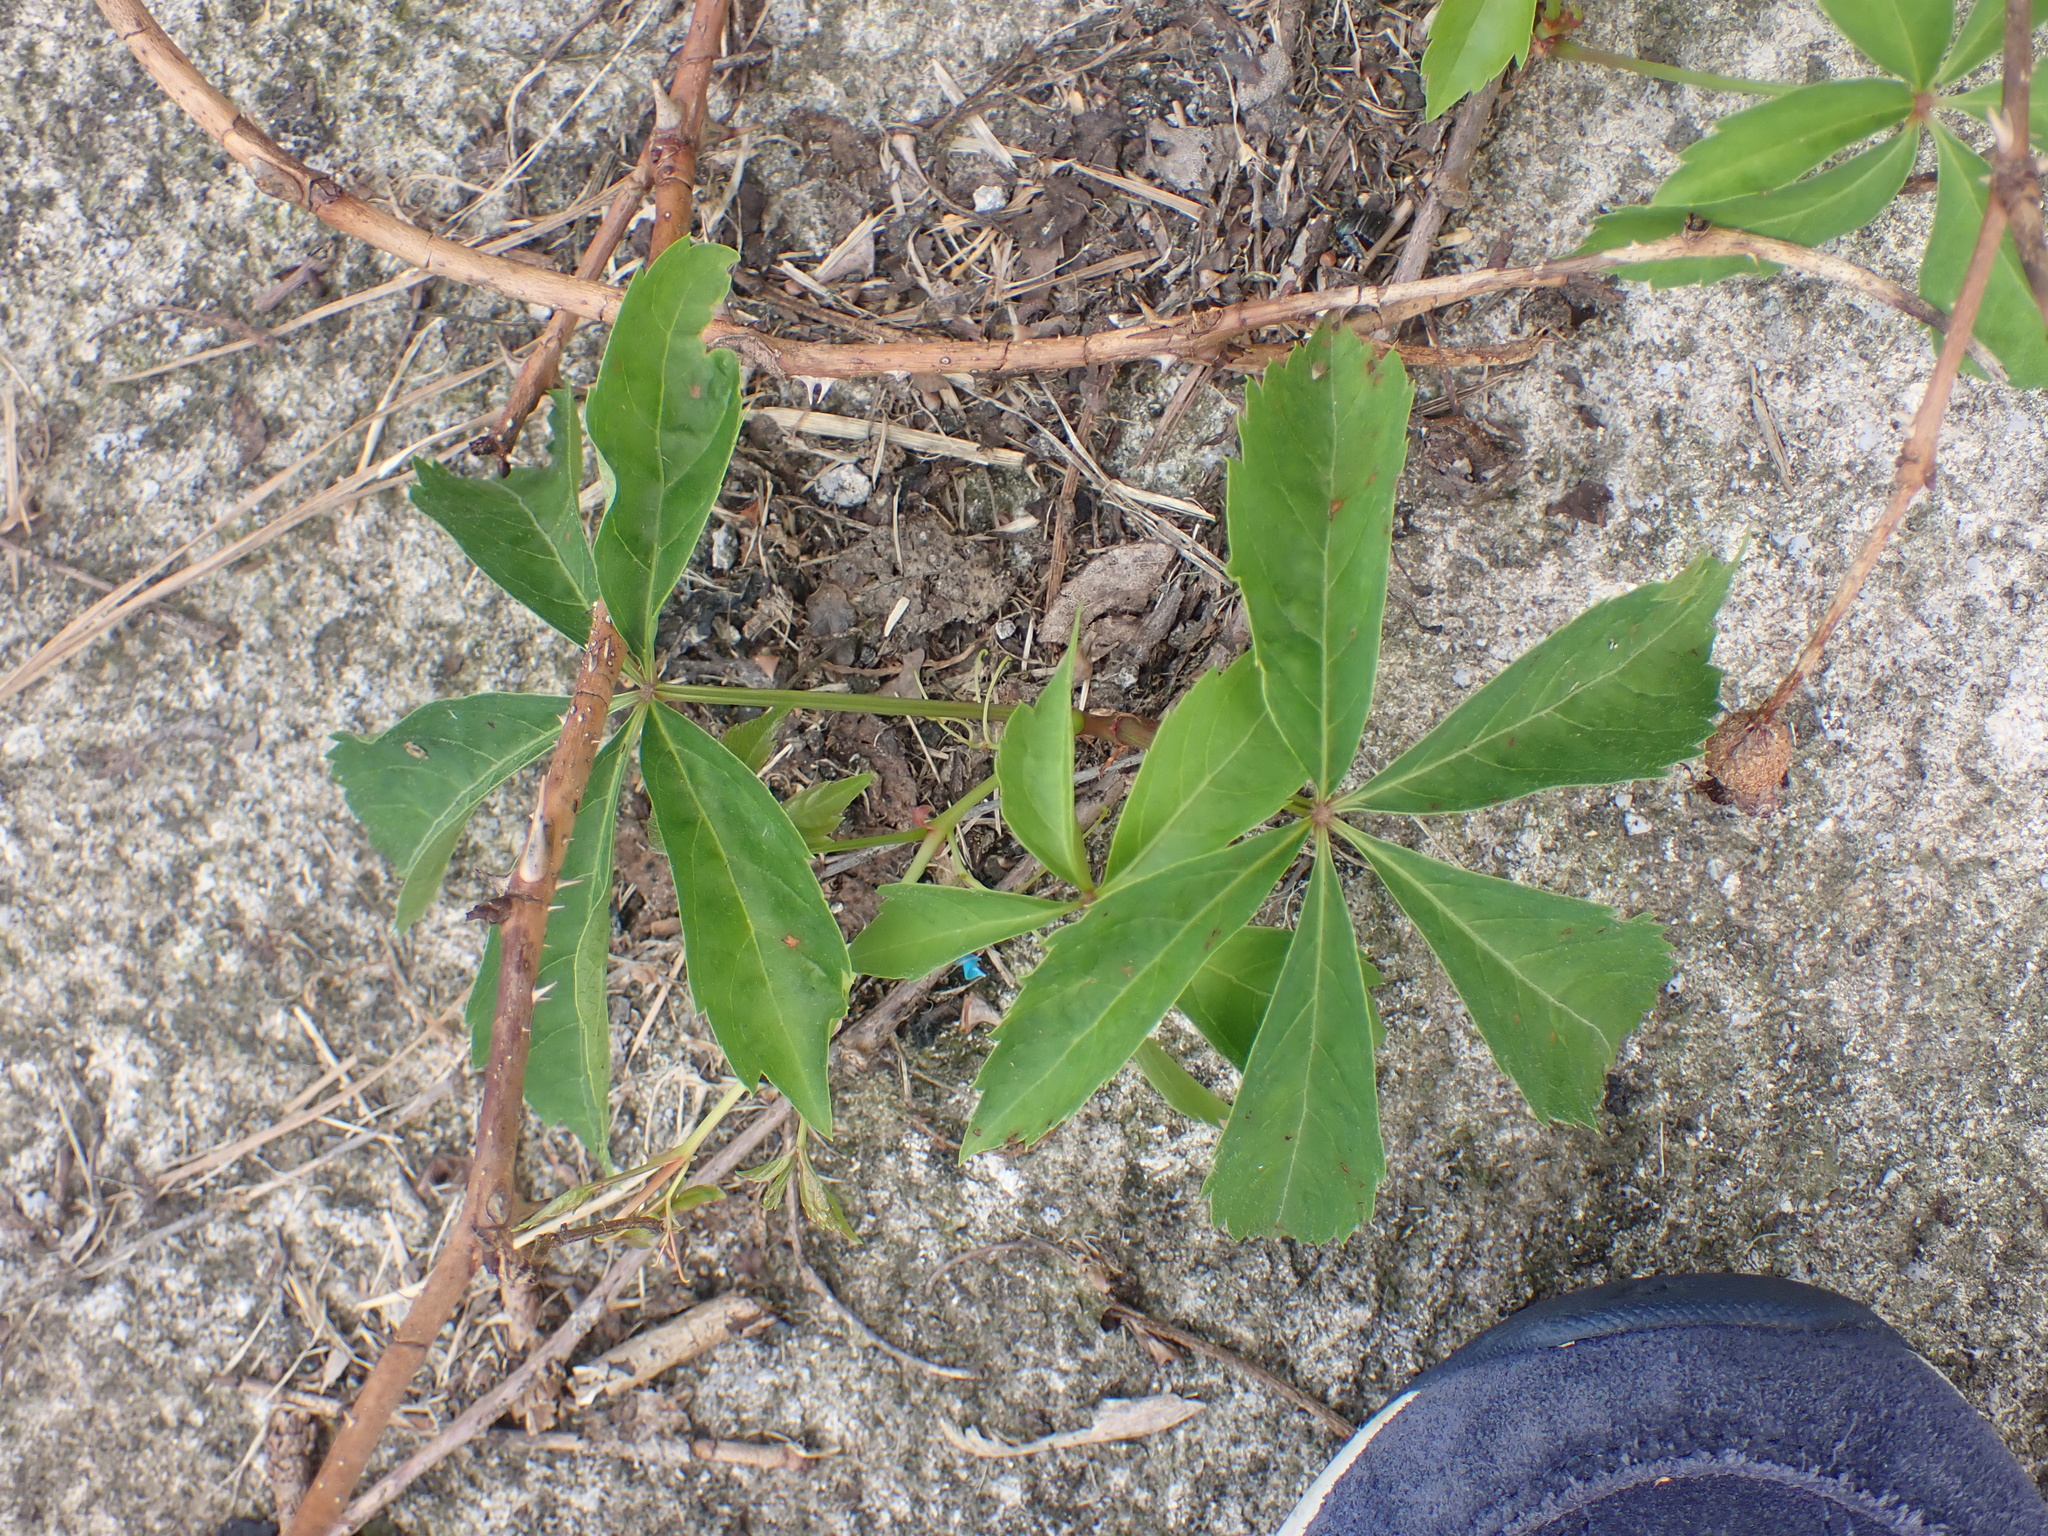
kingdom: Plantae
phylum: Tracheophyta
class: Magnoliopsida
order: Vitales
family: Vitaceae
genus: Parthenocissus
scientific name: Parthenocissus quinquefolia
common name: Virginia-creeper
